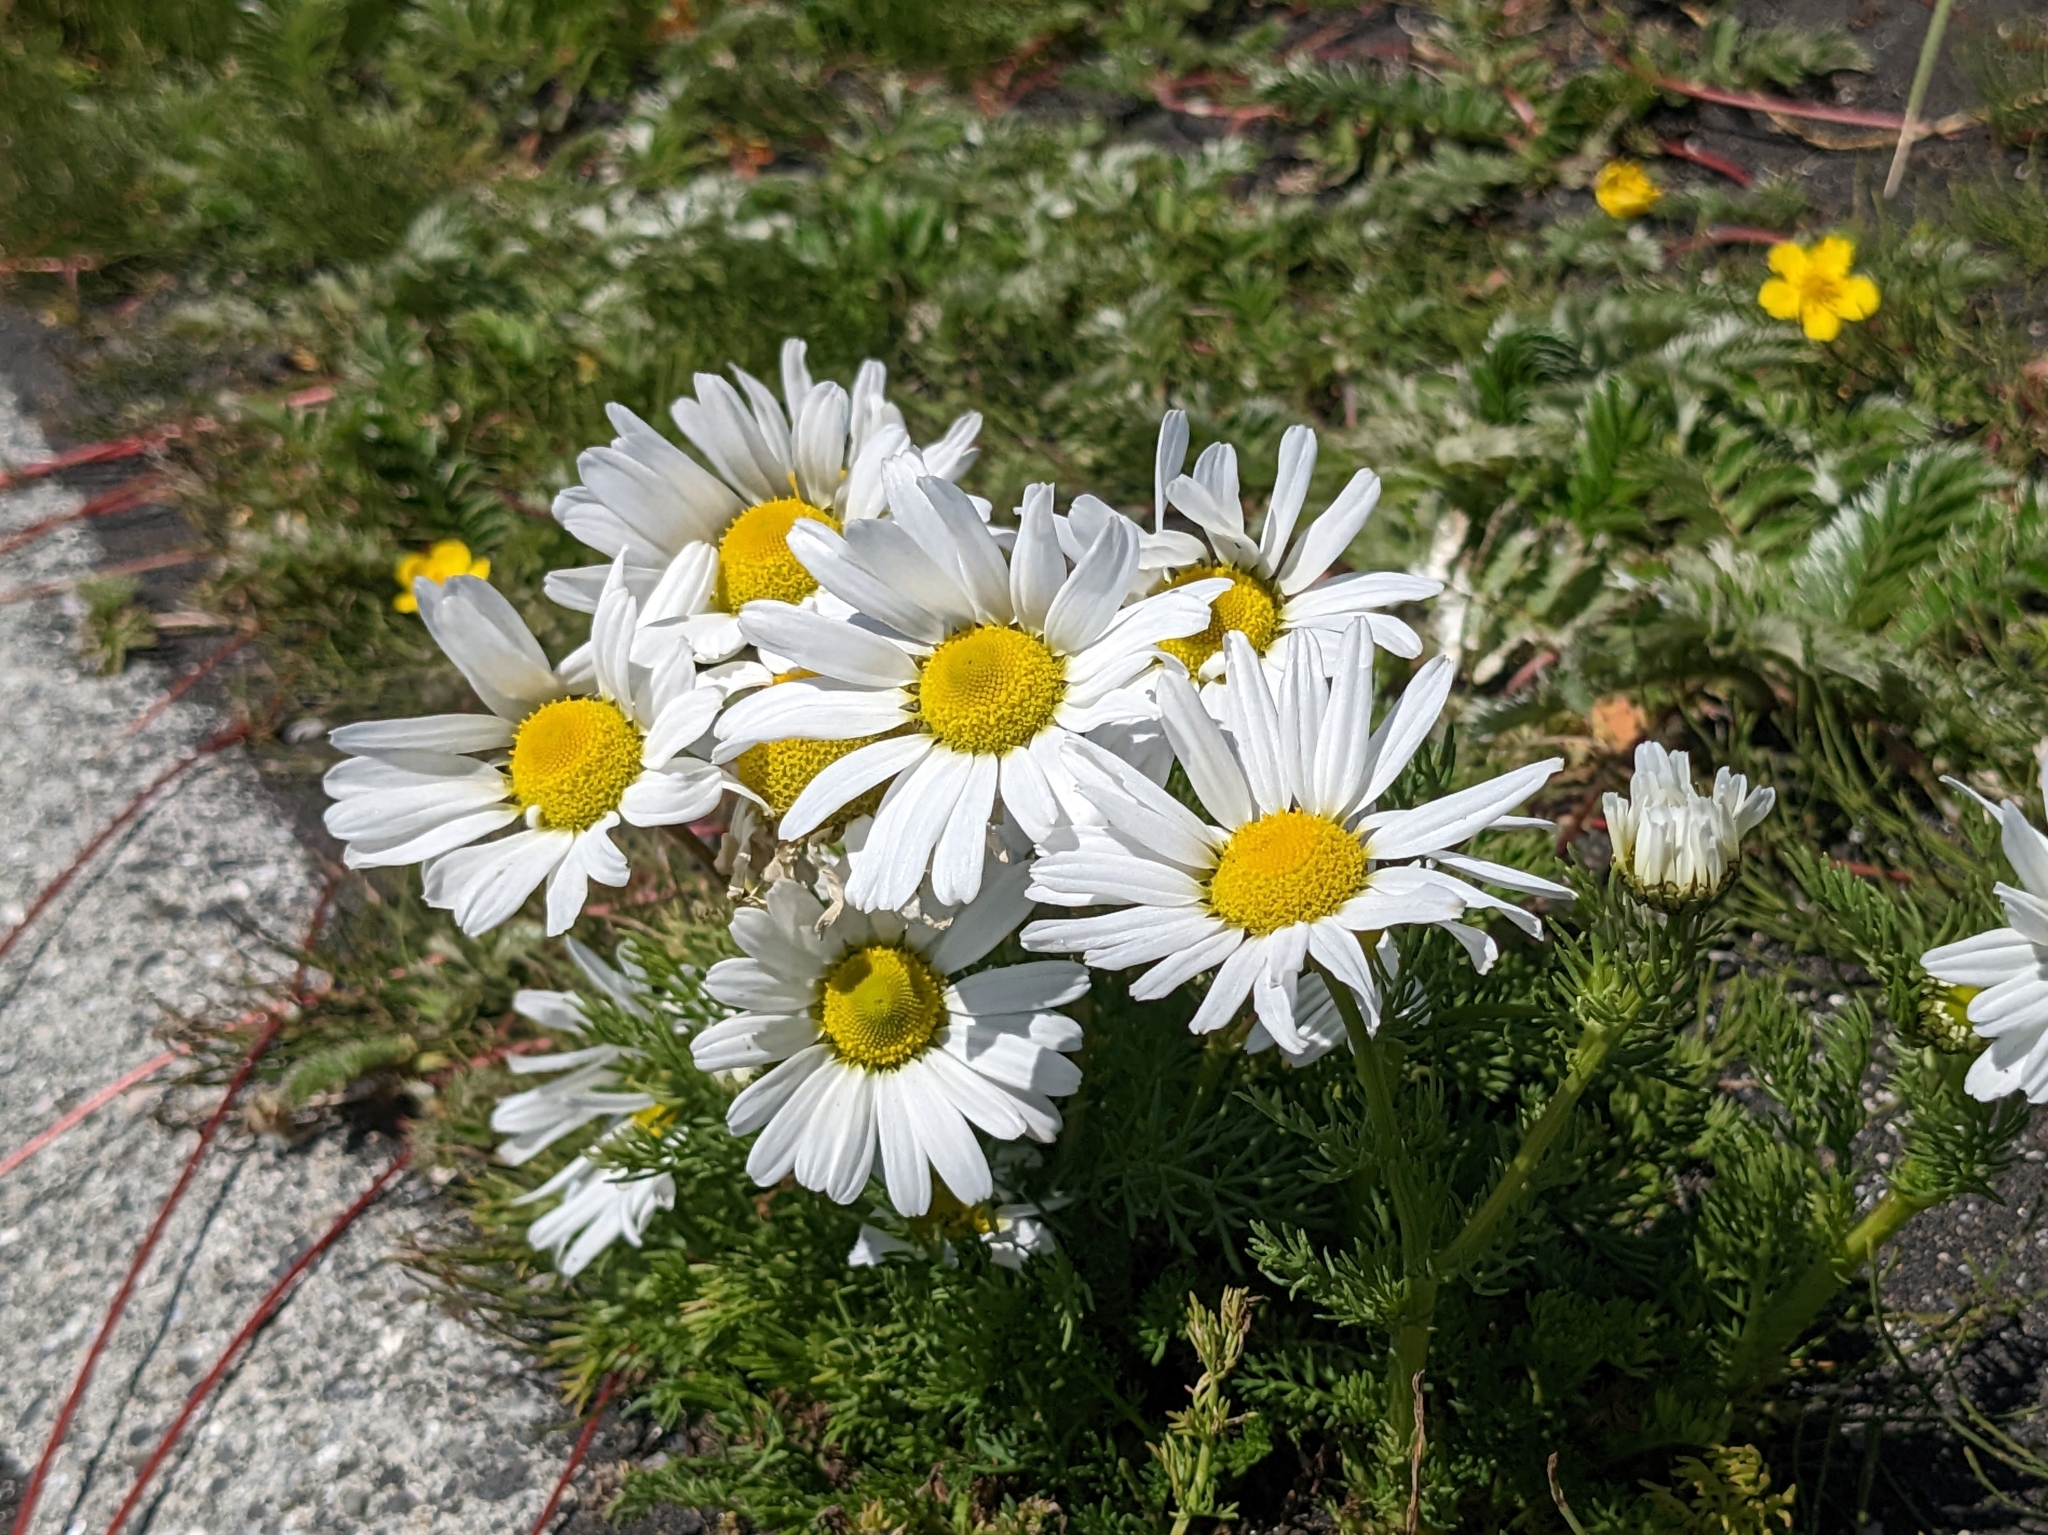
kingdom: Plantae
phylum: Tracheophyta
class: Magnoliopsida
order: Asterales
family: Asteraceae
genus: Tripleurospermum
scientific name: Tripleurospermum maritimum
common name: Sea mayweed
